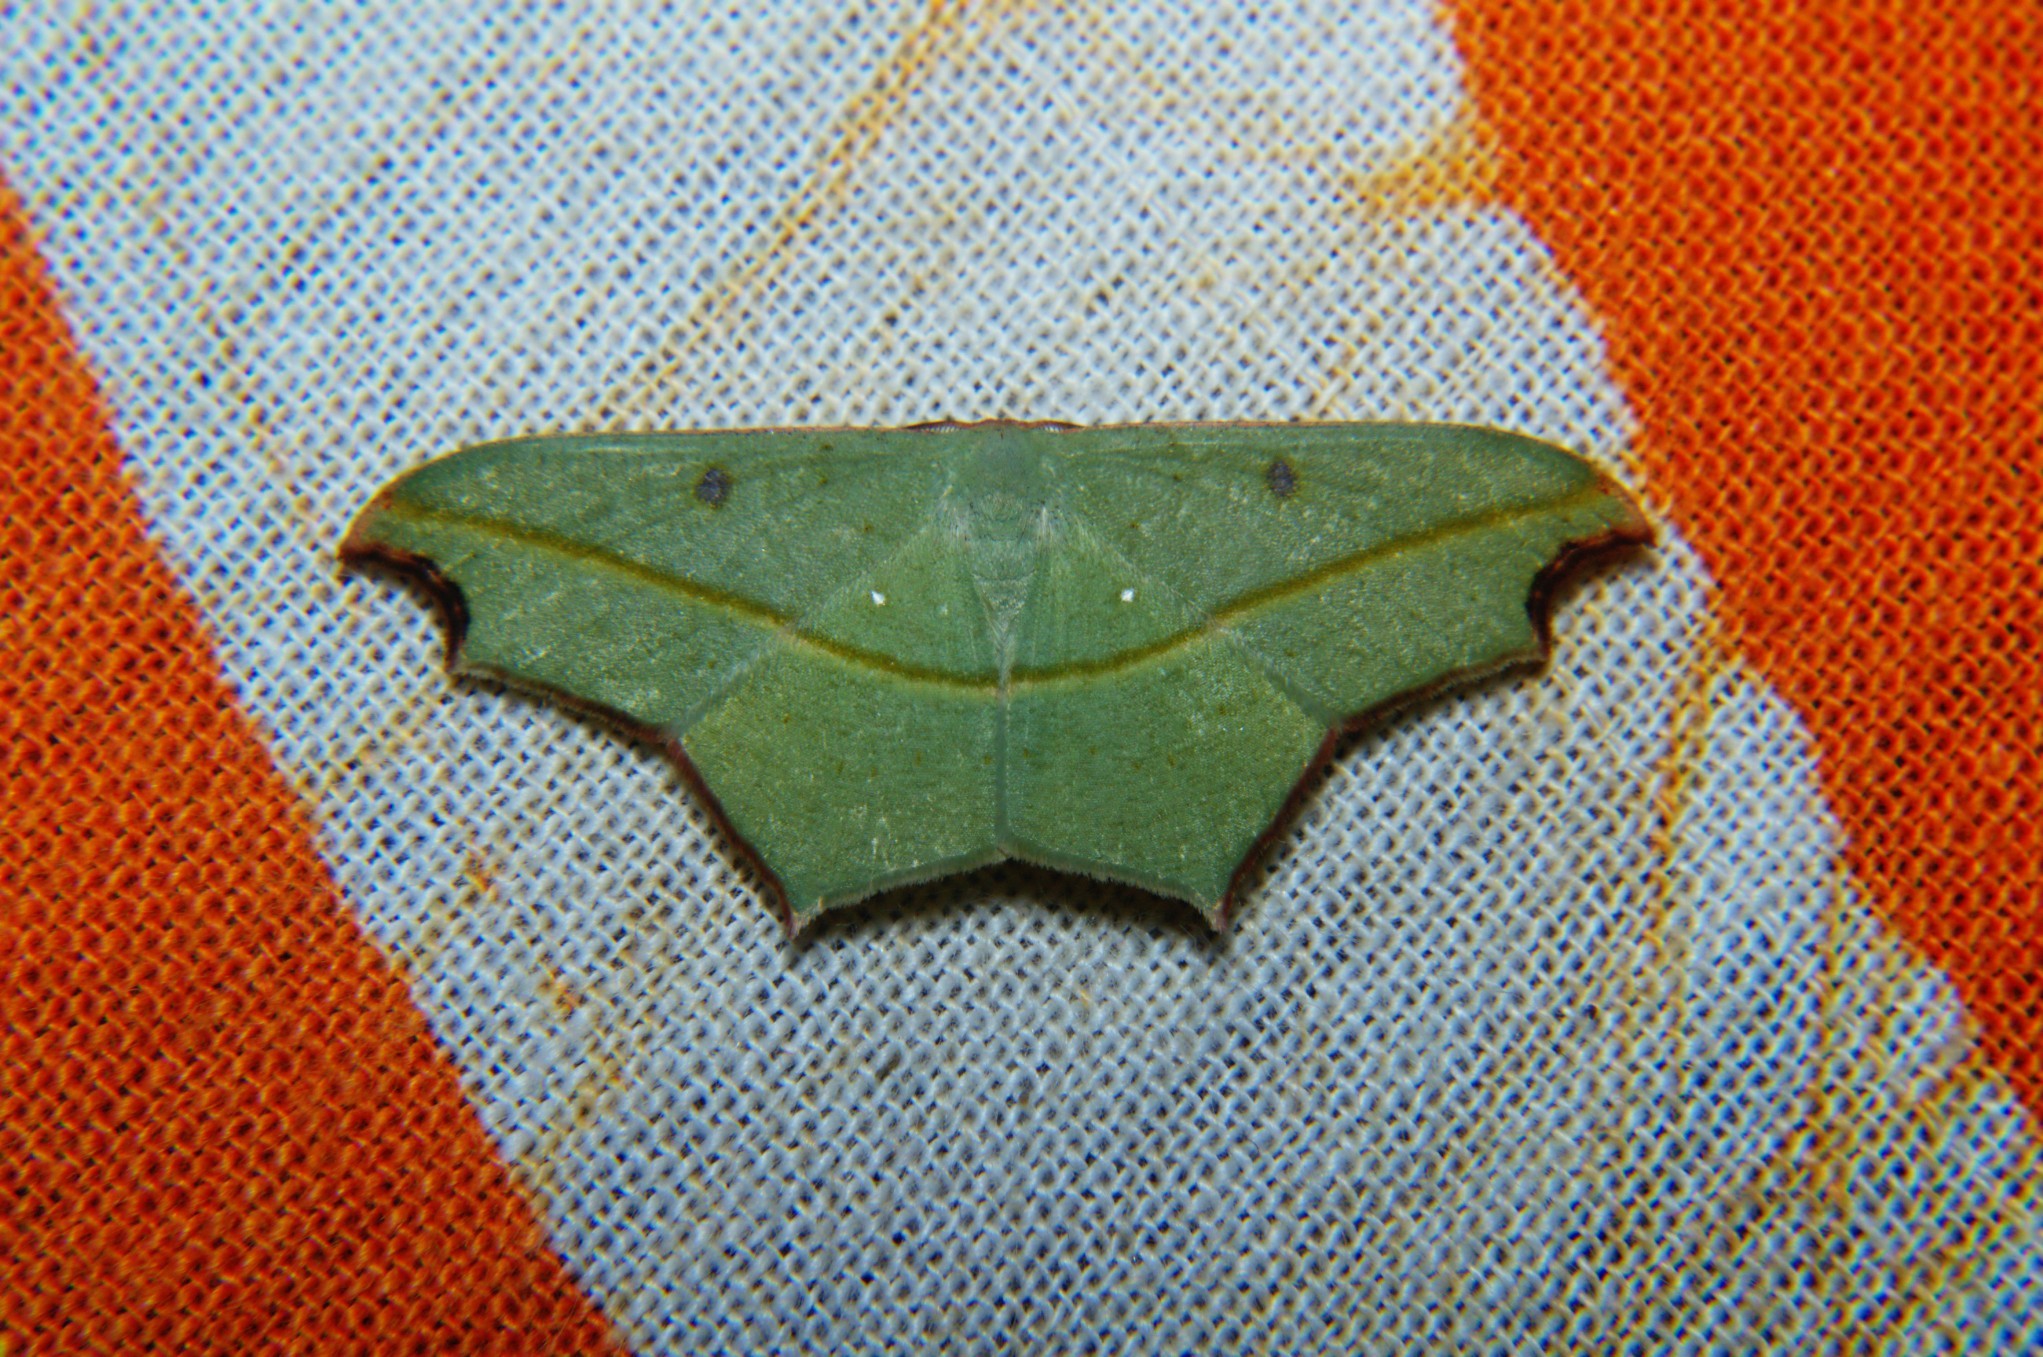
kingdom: Animalia
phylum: Arthropoda
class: Insecta
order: Lepidoptera
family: Geometridae
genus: Traminda
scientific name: Traminda aventiaria
